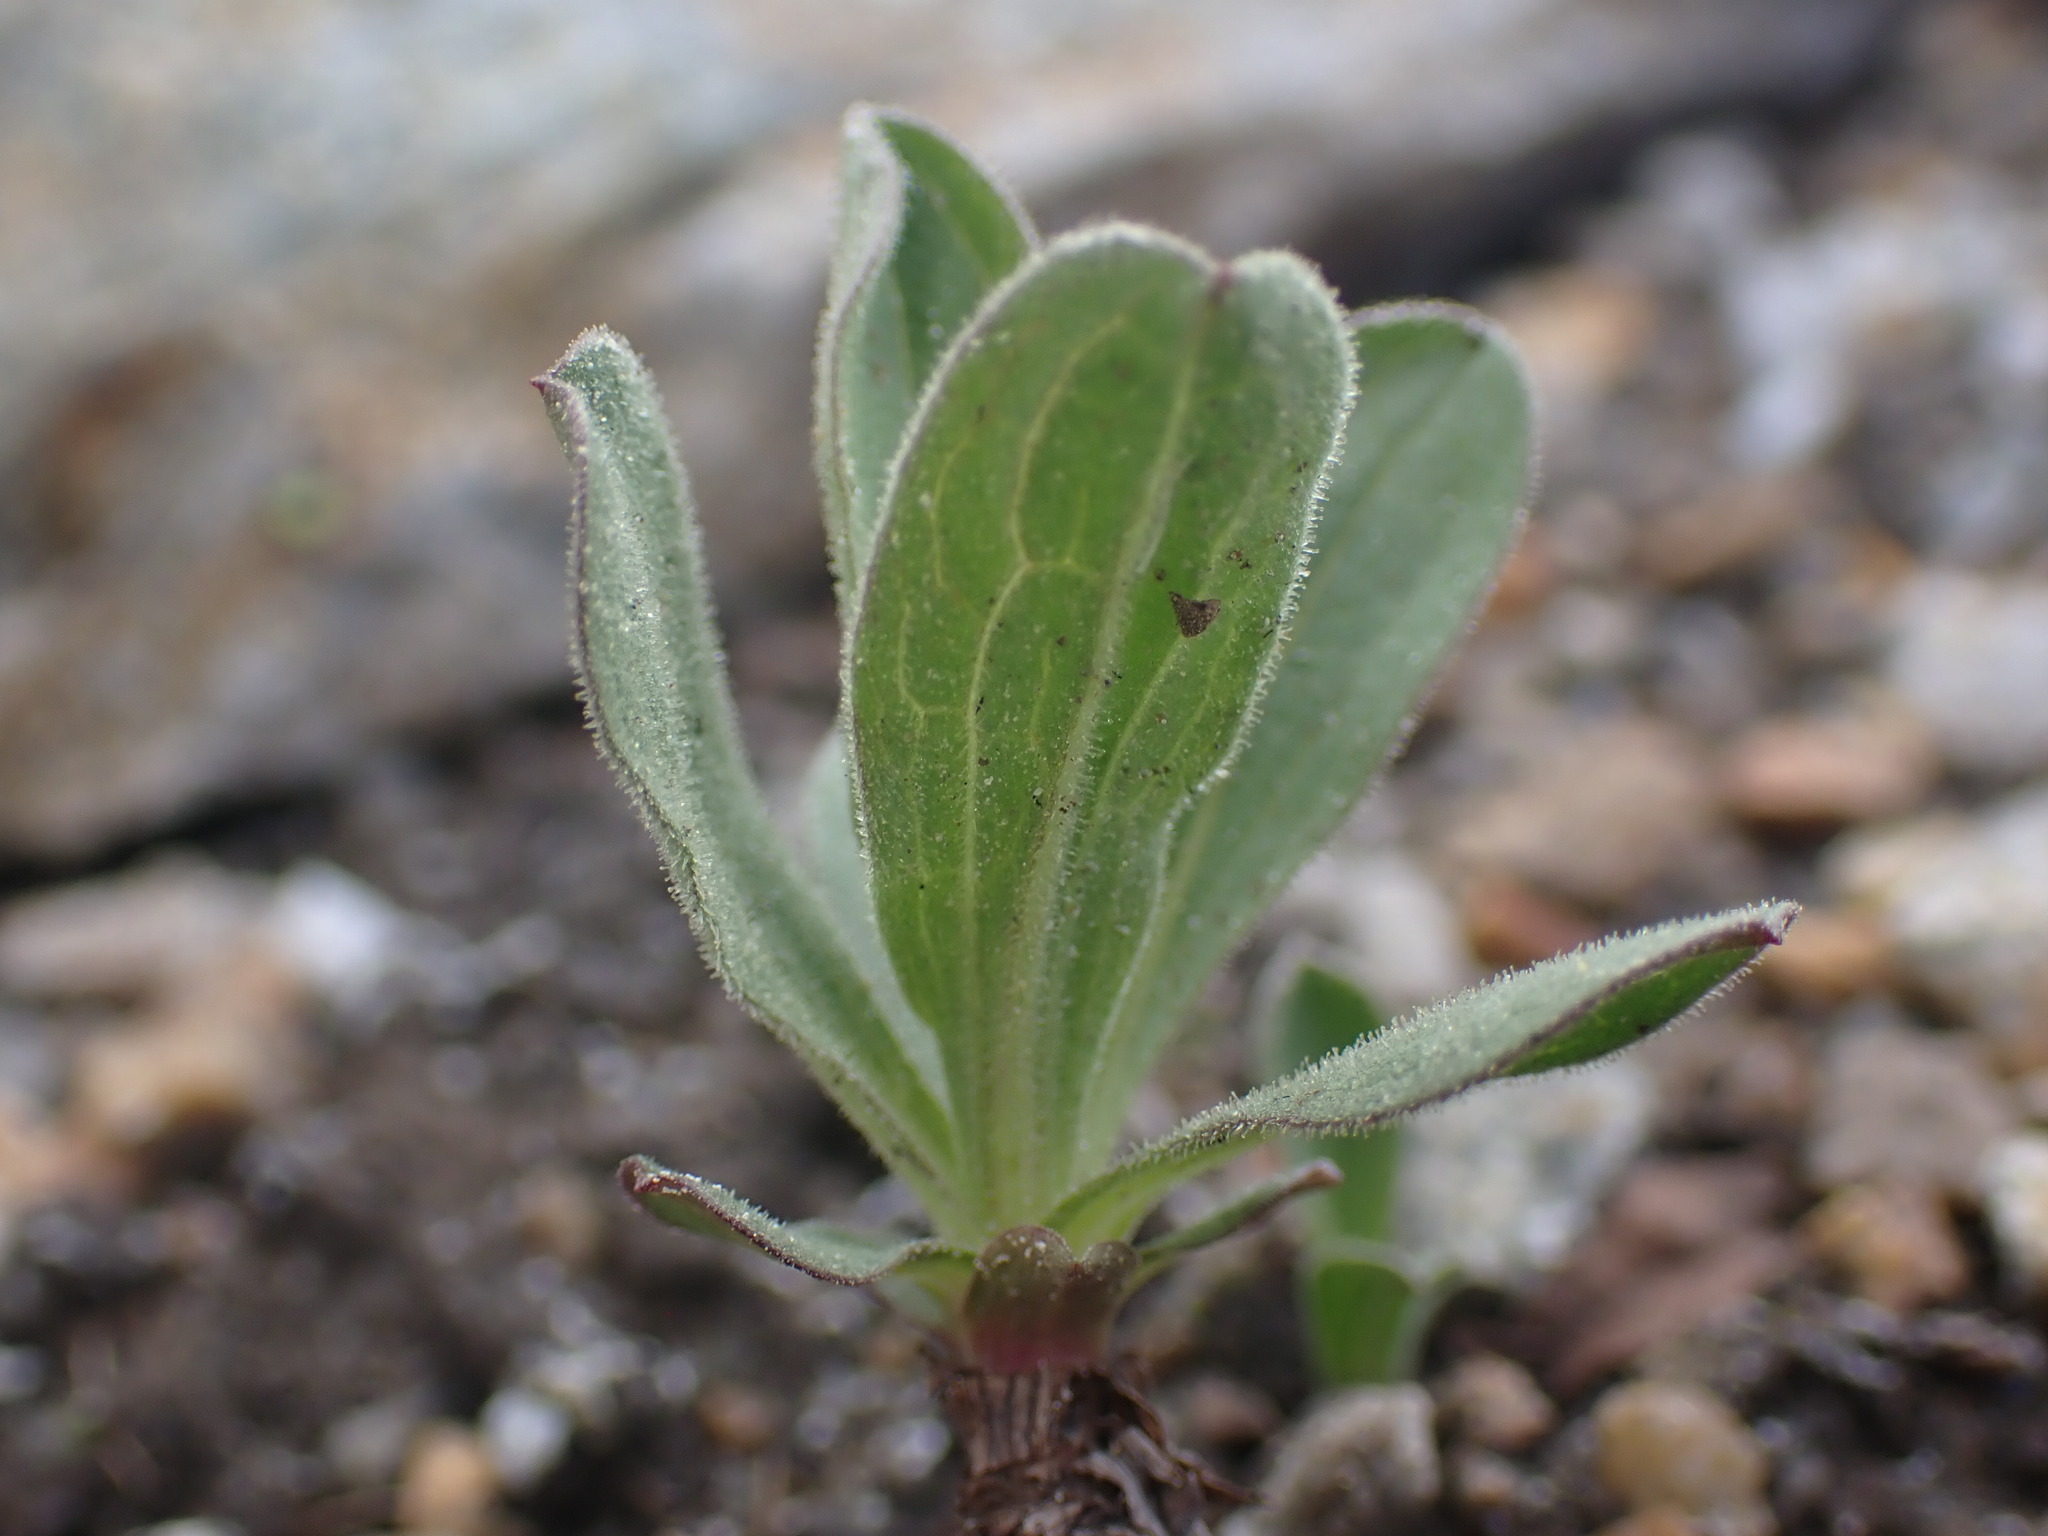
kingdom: Plantae
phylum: Tracheophyta
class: Magnoliopsida
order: Asterales
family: Asteraceae
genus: Tonestus
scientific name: Tonestus lyallii
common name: Lyall's goldenweed
